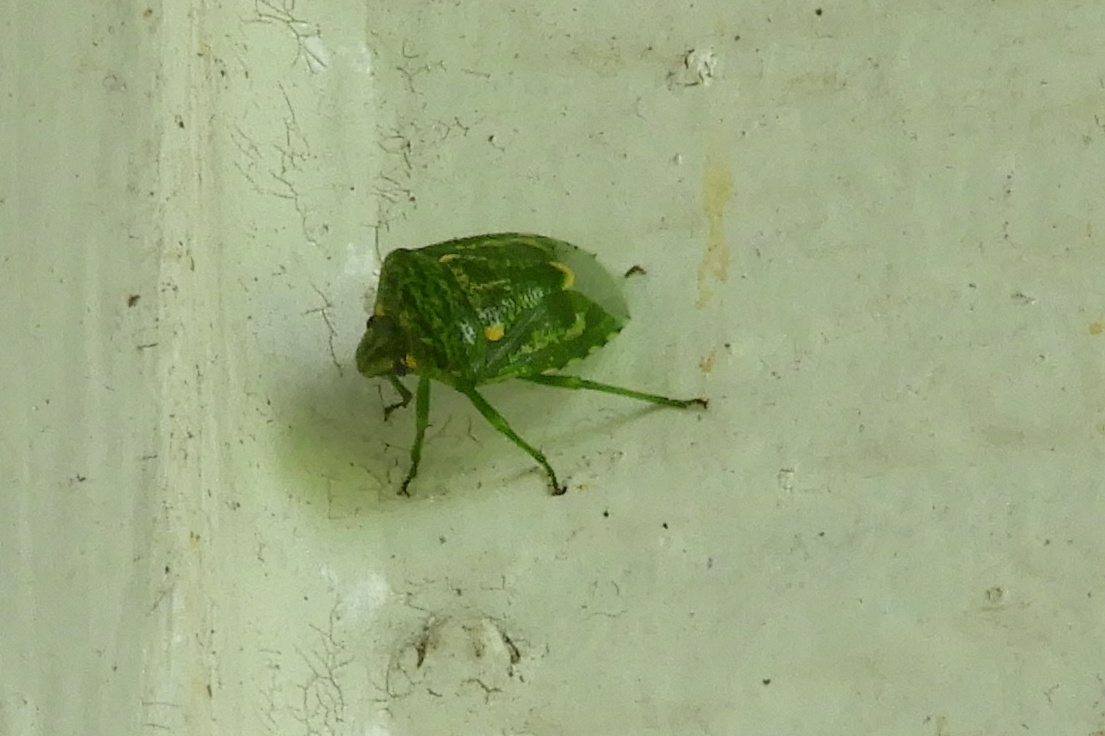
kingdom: Animalia
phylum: Arthropoda
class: Insecta
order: Hemiptera
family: Pentatomidae
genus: Banasa
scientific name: Banasa euchlora
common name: Cedar berry bug
